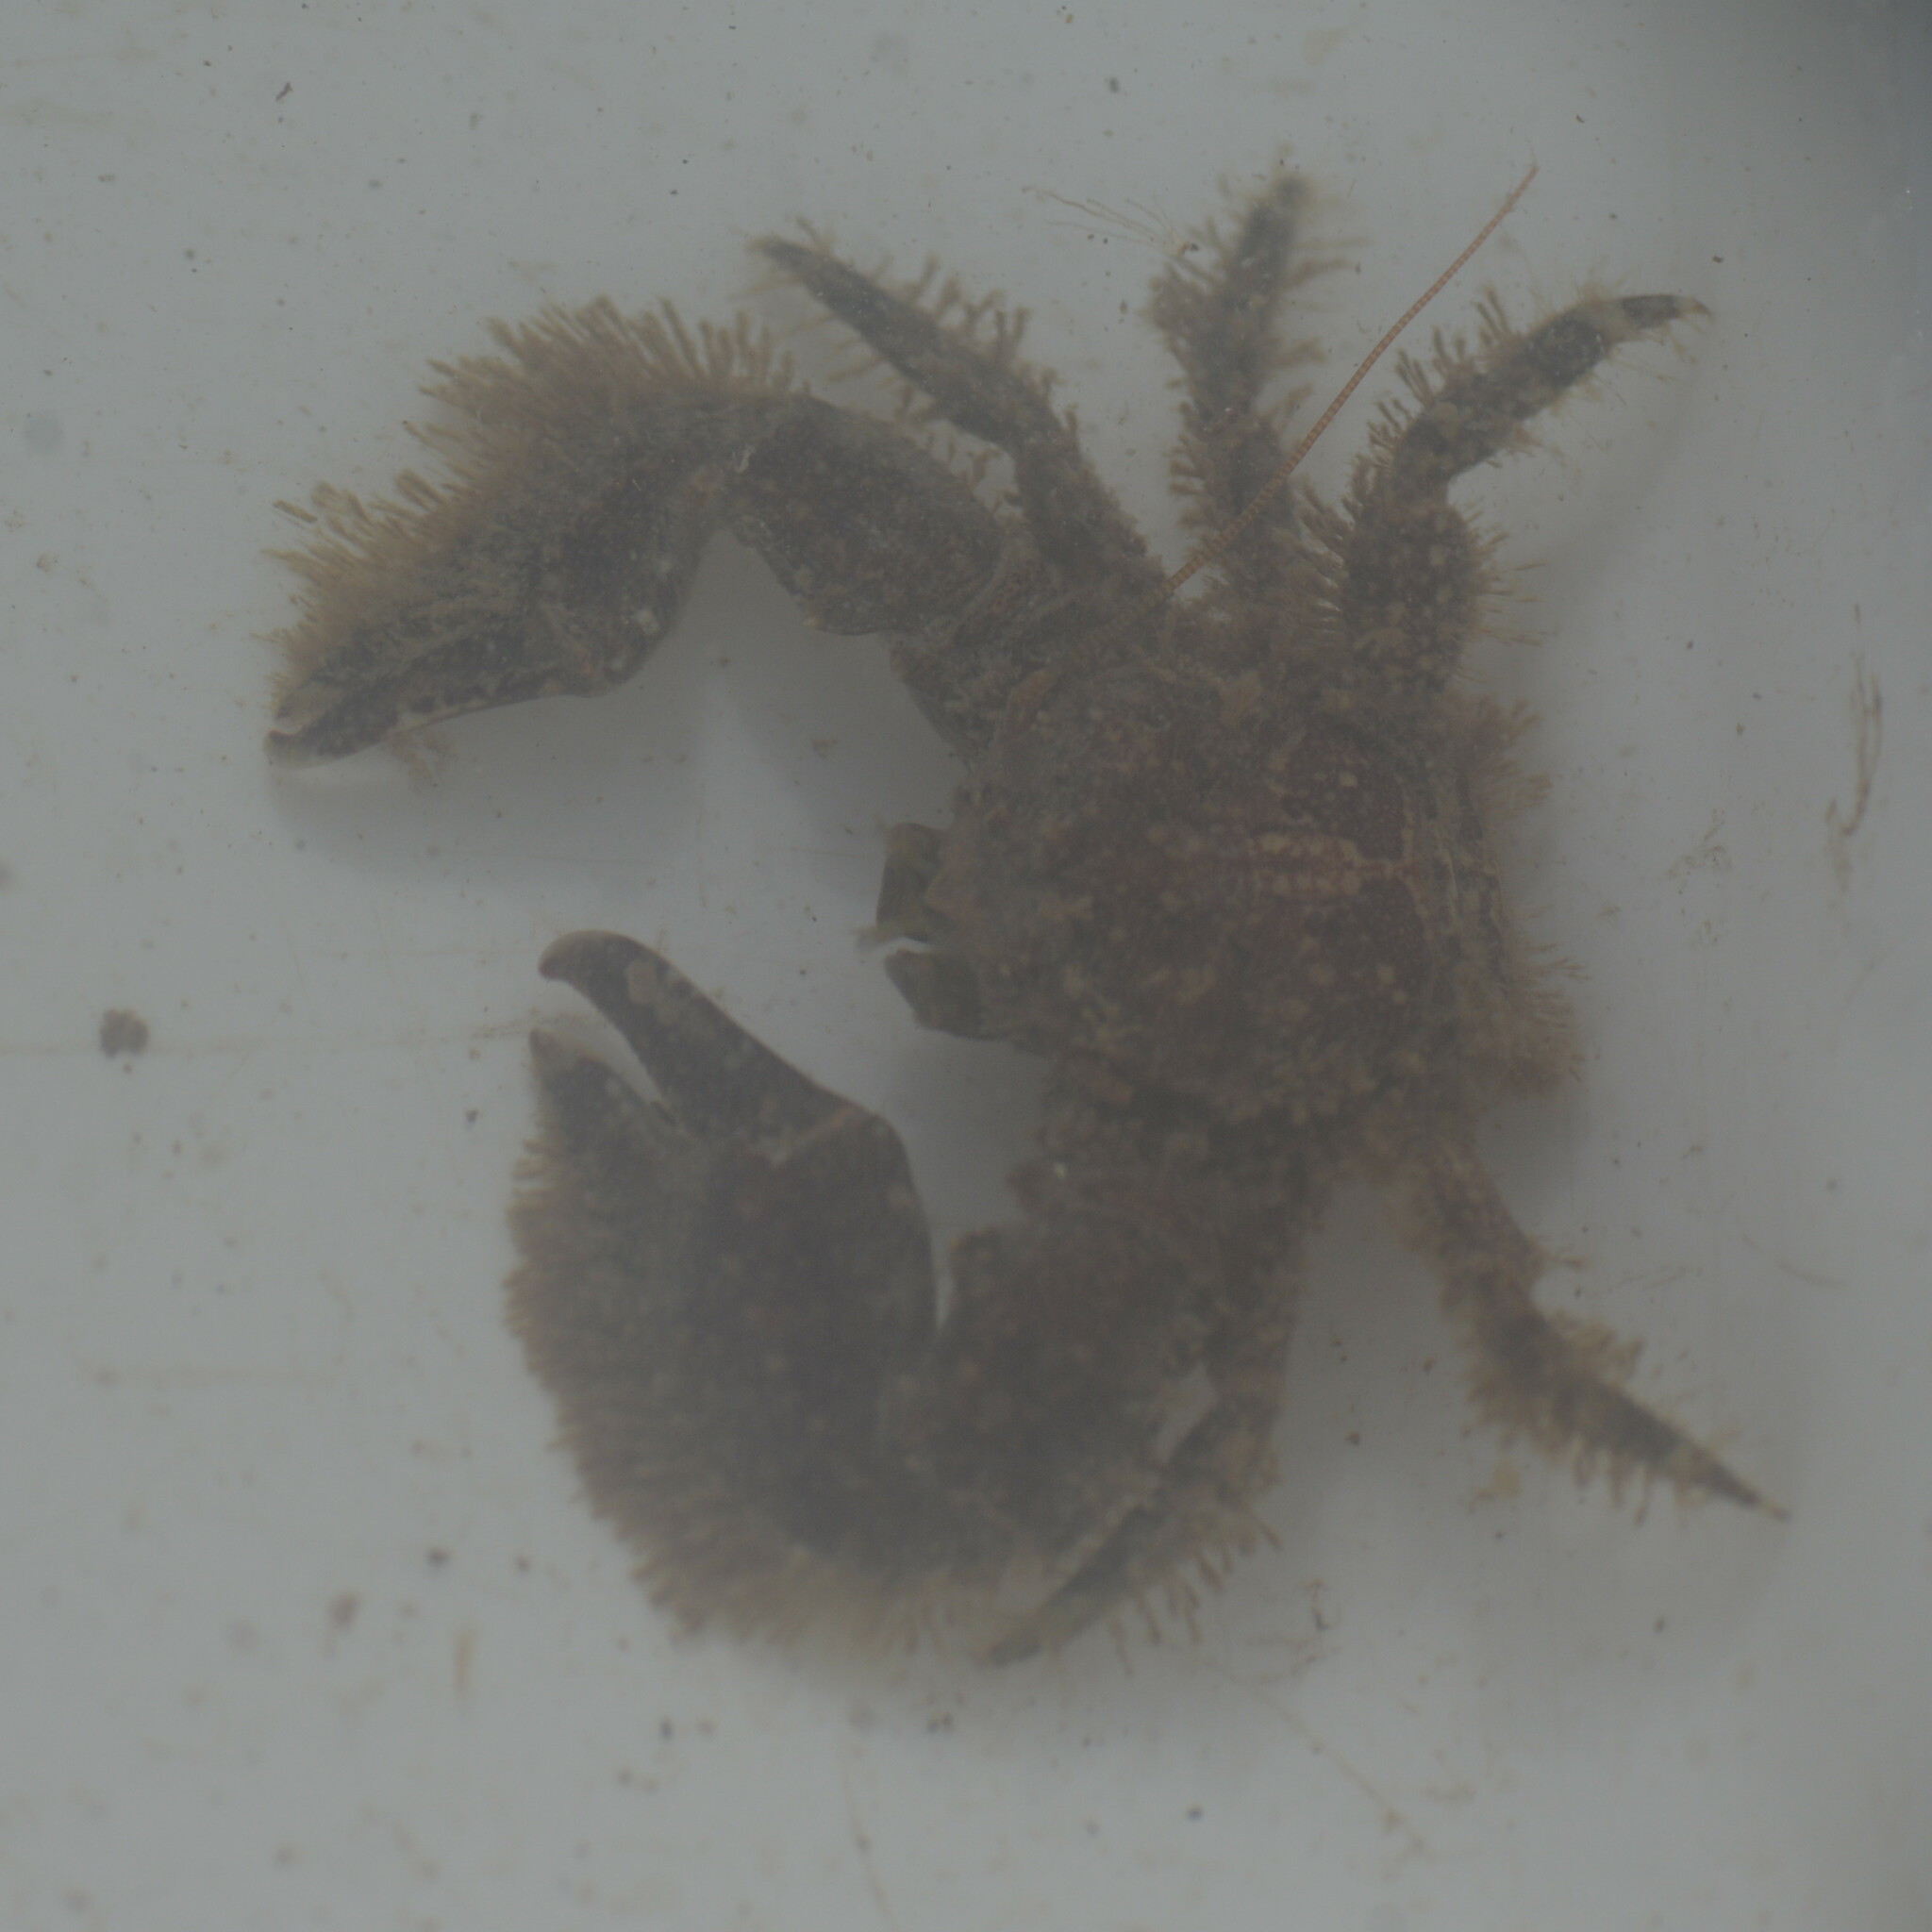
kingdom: Animalia
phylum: Arthropoda
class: Malacostraca
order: Decapoda
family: Porcellanidae
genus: Porcellana
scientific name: Porcellana platycheles
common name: Porcelain crab
